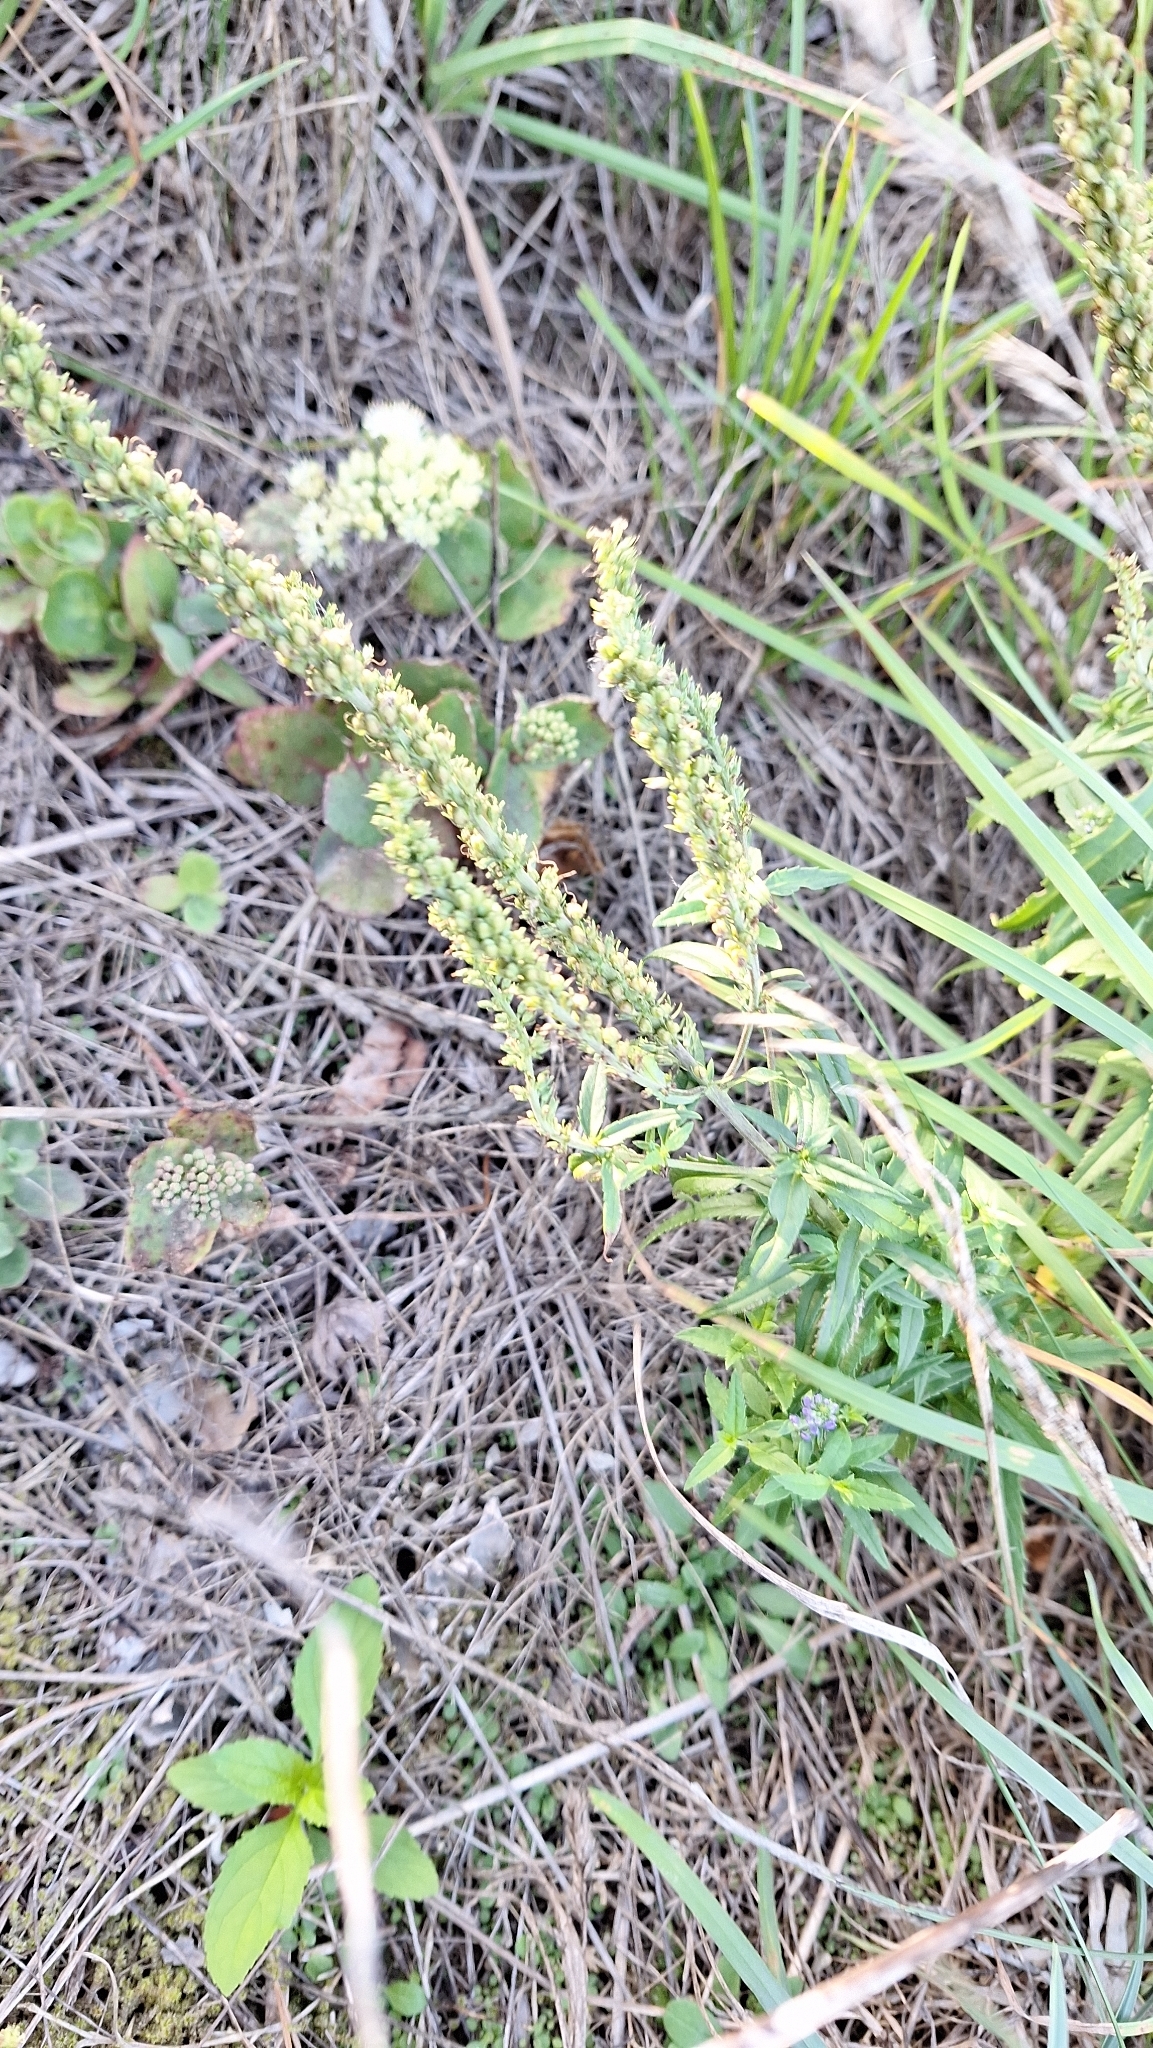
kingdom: Plantae
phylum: Tracheophyta
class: Magnoliopsida
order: Lamiales
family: Plantaginaceae
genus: Veronica
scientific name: Veronica longifolia
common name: Garden speedwell
